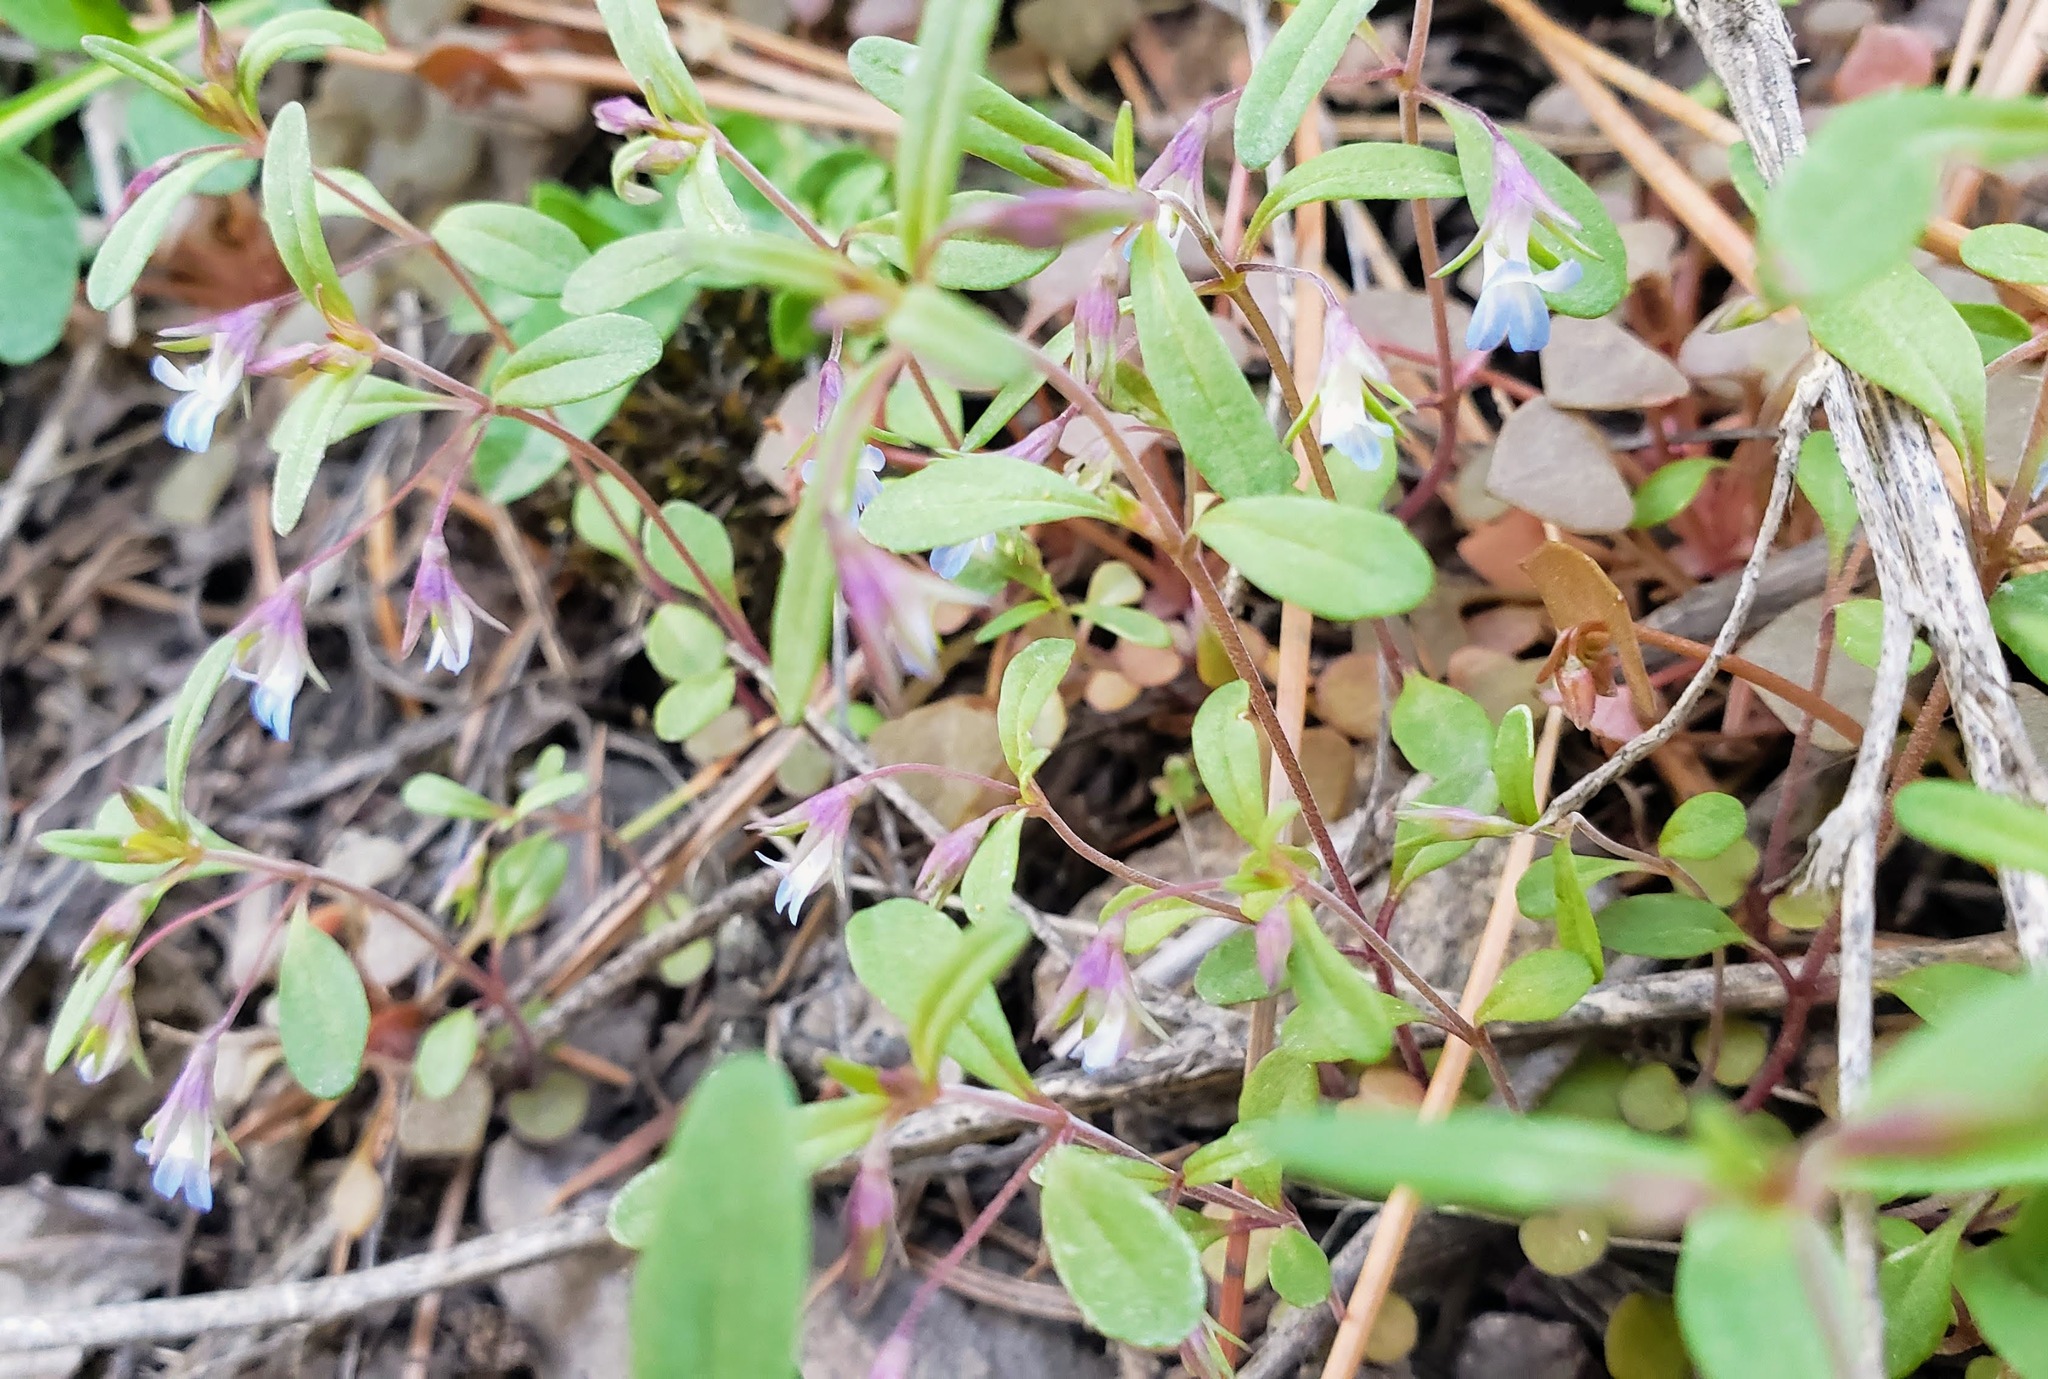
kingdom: Plantae
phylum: Tracheophyta
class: Magnoliopsida
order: Lamiales
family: Plantaginaceae
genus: Collinsia
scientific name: Collinsia parviflora
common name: Blue-lips
